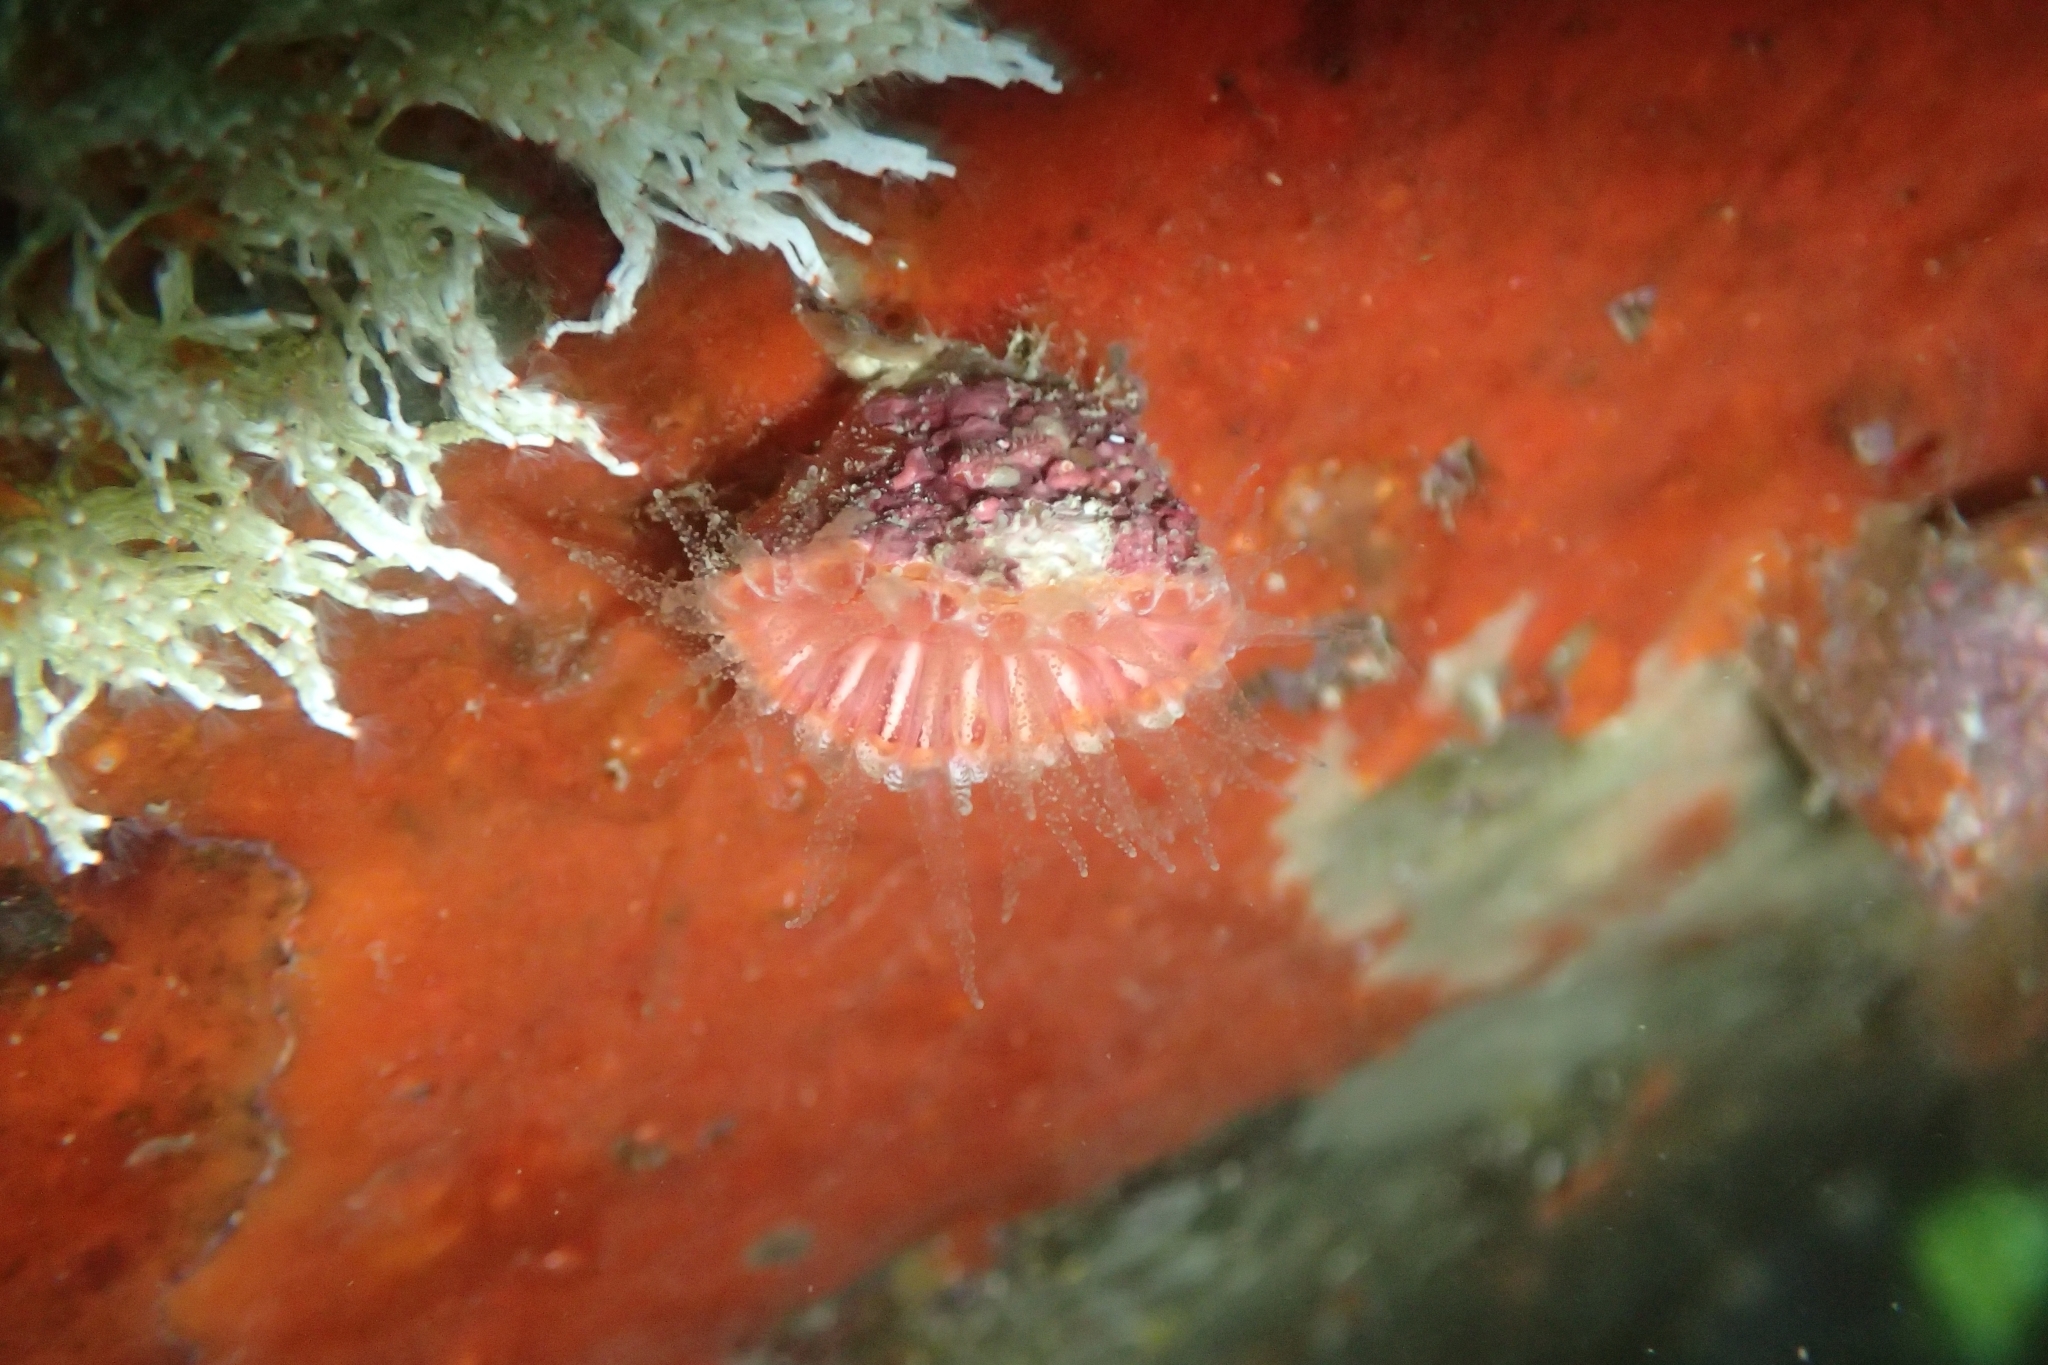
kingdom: Animalia
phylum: Cnidaria
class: Anthozoa
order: Scleractinia
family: Flabellidae
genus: Monomyces
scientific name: Monomyces rubrum
